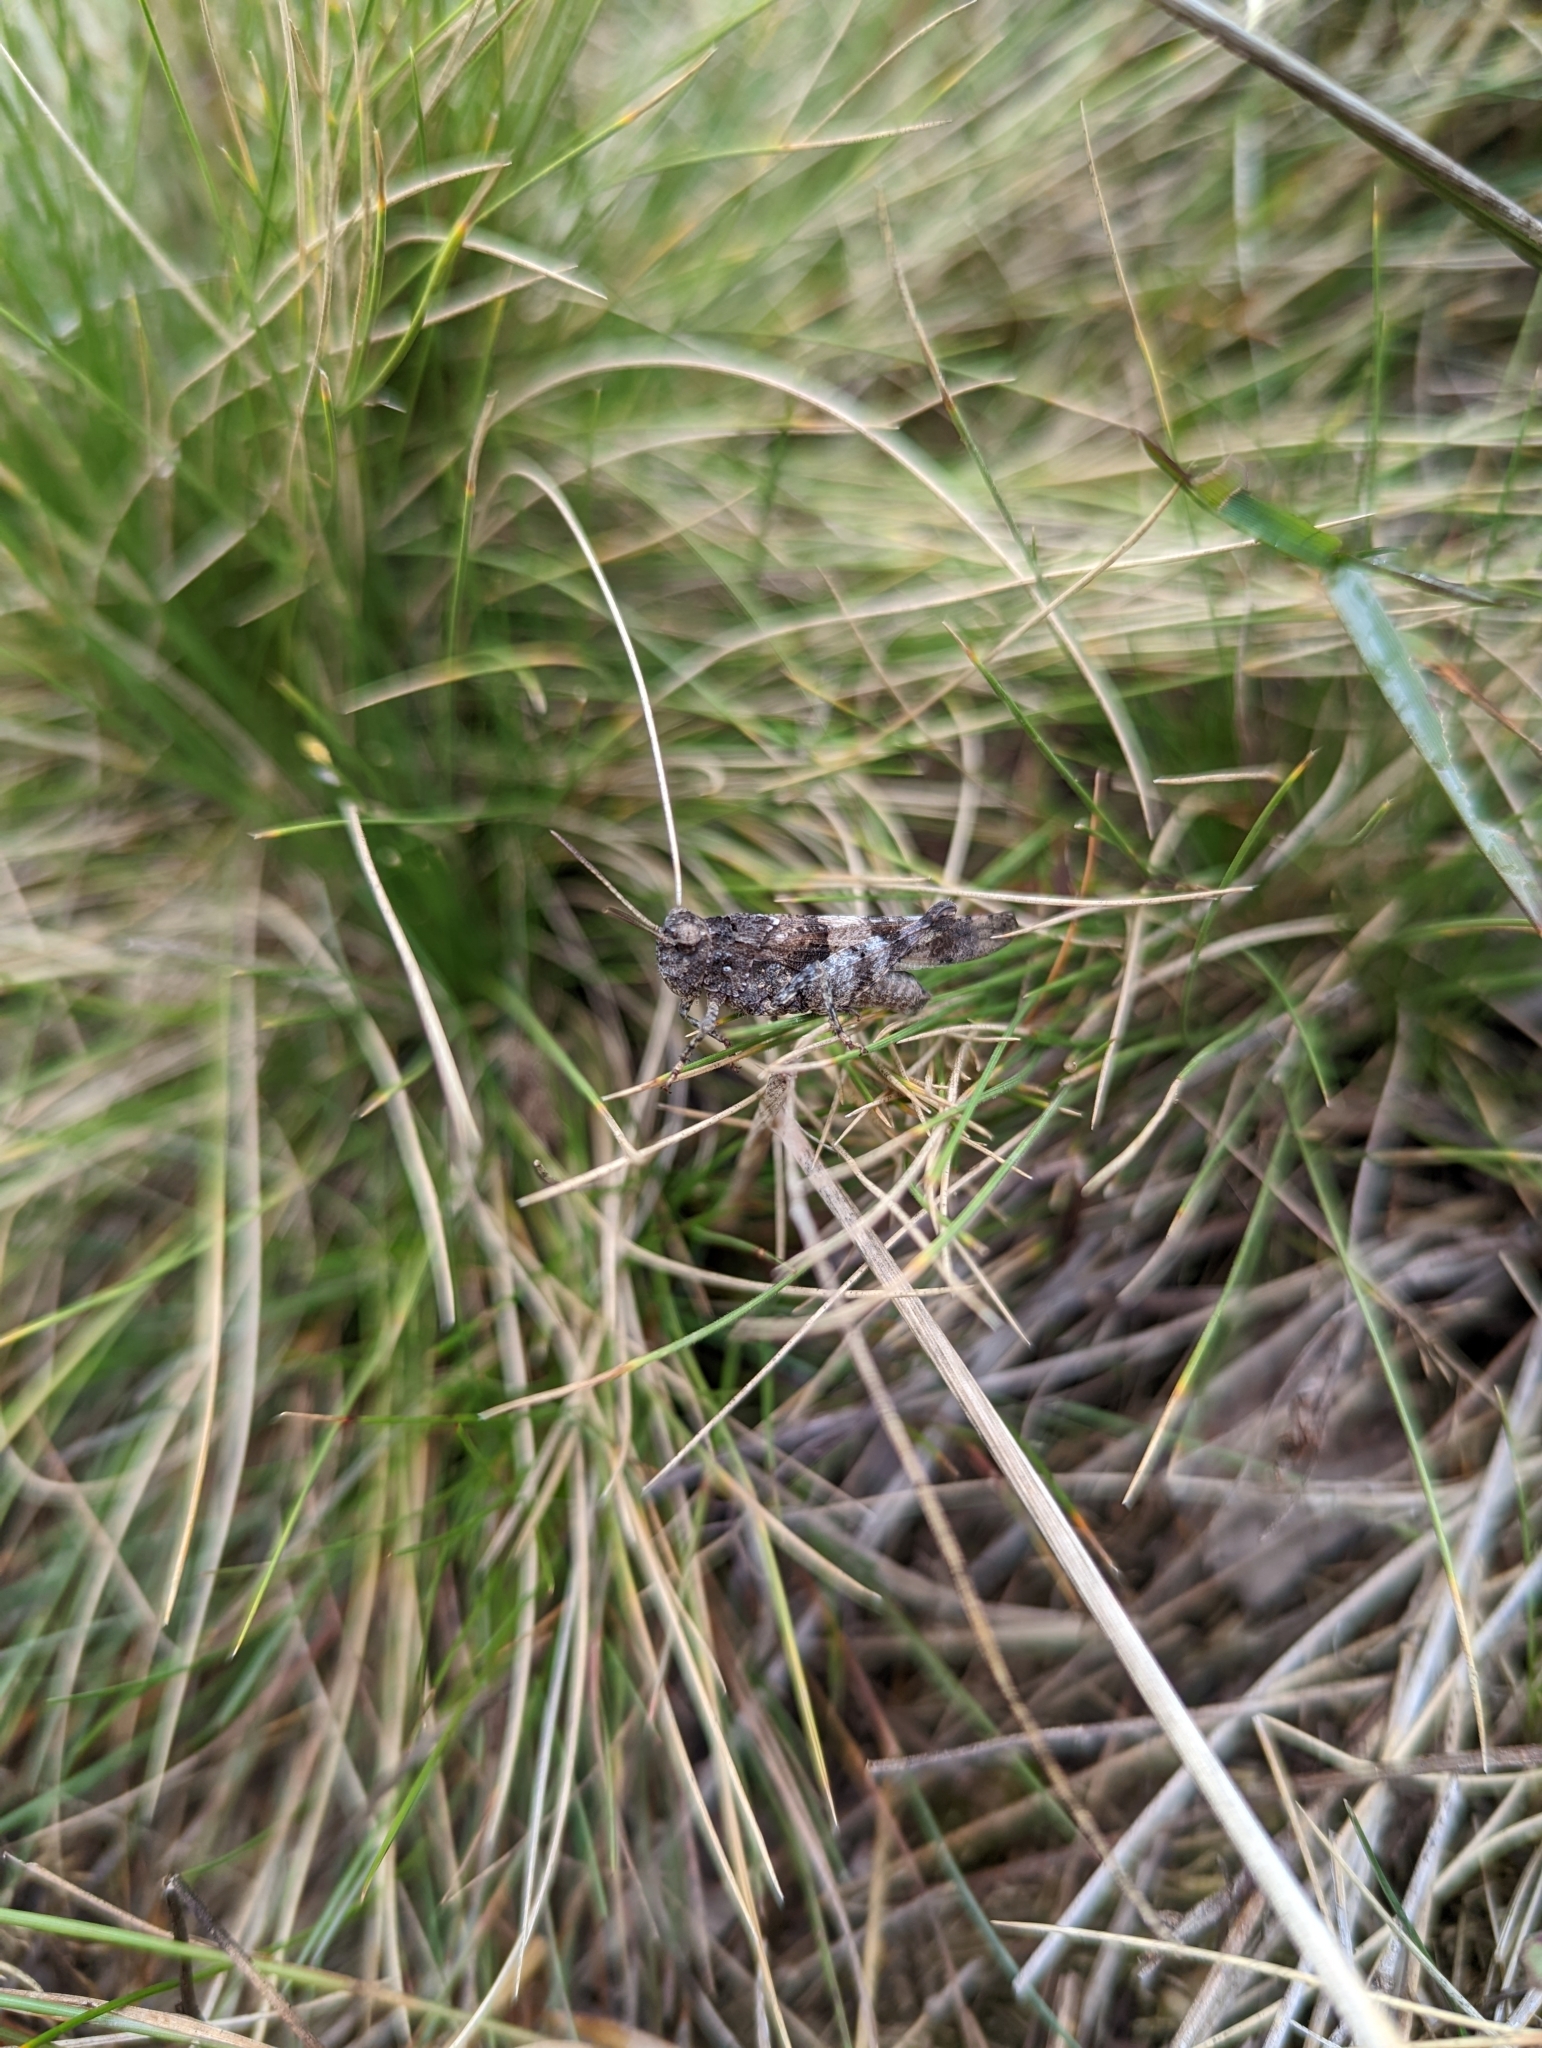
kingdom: Animalia
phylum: Arthropoda
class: Insecta
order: Orthoptera
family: Acrididae
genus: Oedipoda
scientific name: Oedipoda caerulescens
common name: Blue-winged grasshopper
